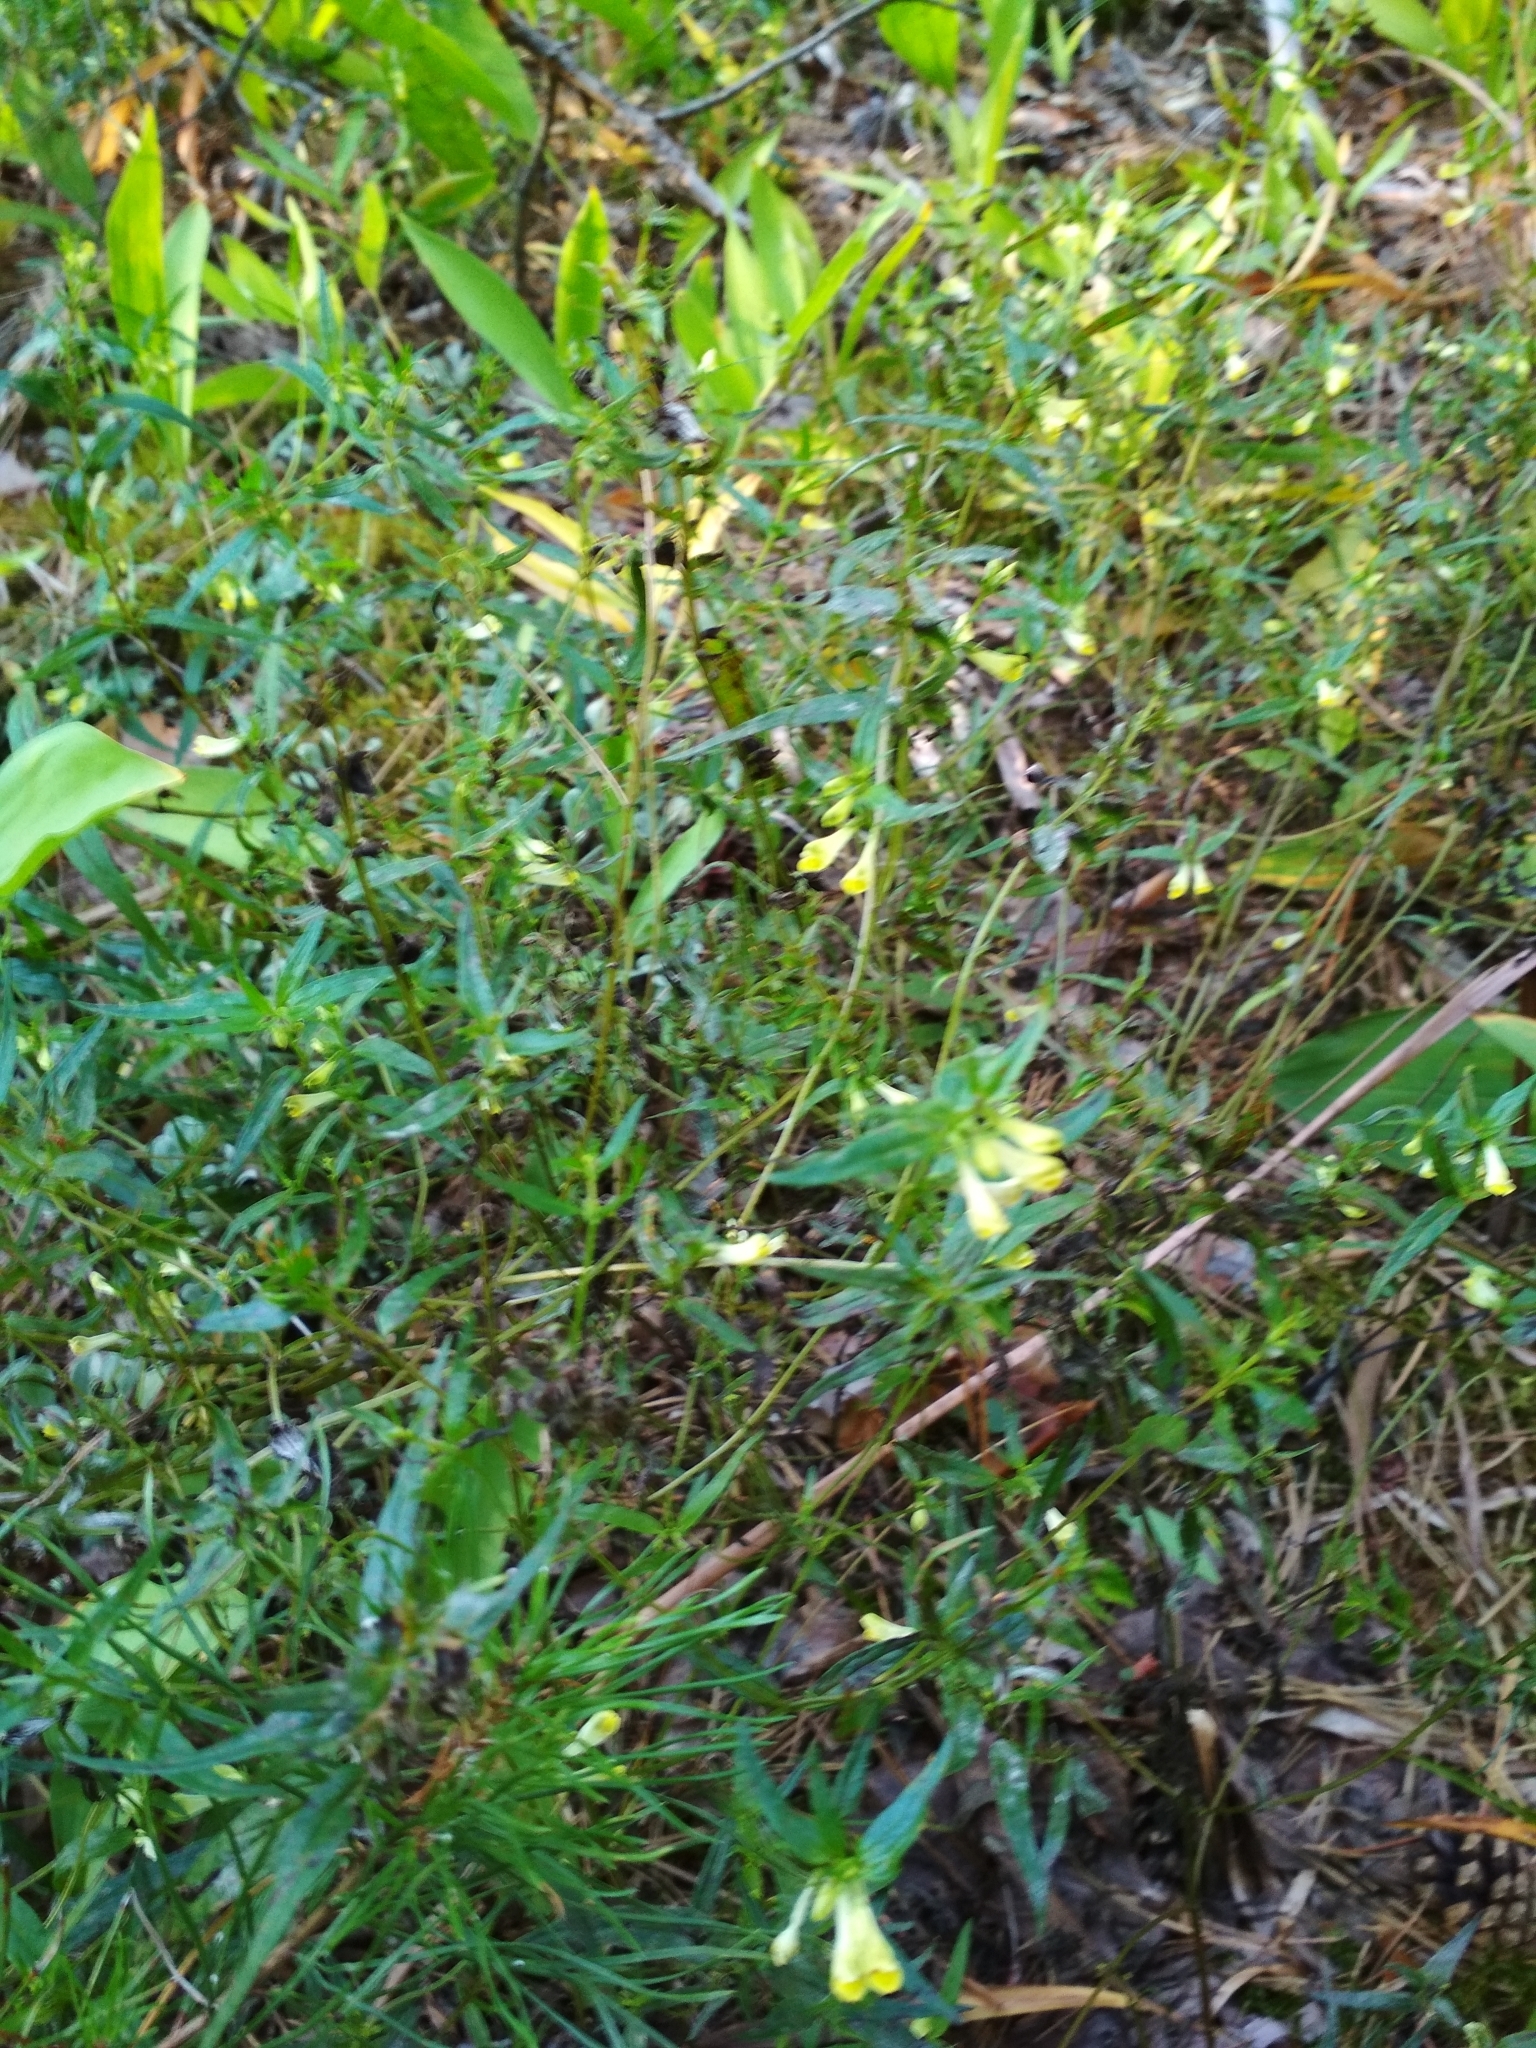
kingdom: Plantae
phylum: Tracheophyta
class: Magnoliopsida
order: Lamiales
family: Orobanchaceae
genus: Melampyrum
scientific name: Melampyrum pratense
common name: Common cow-wheat
